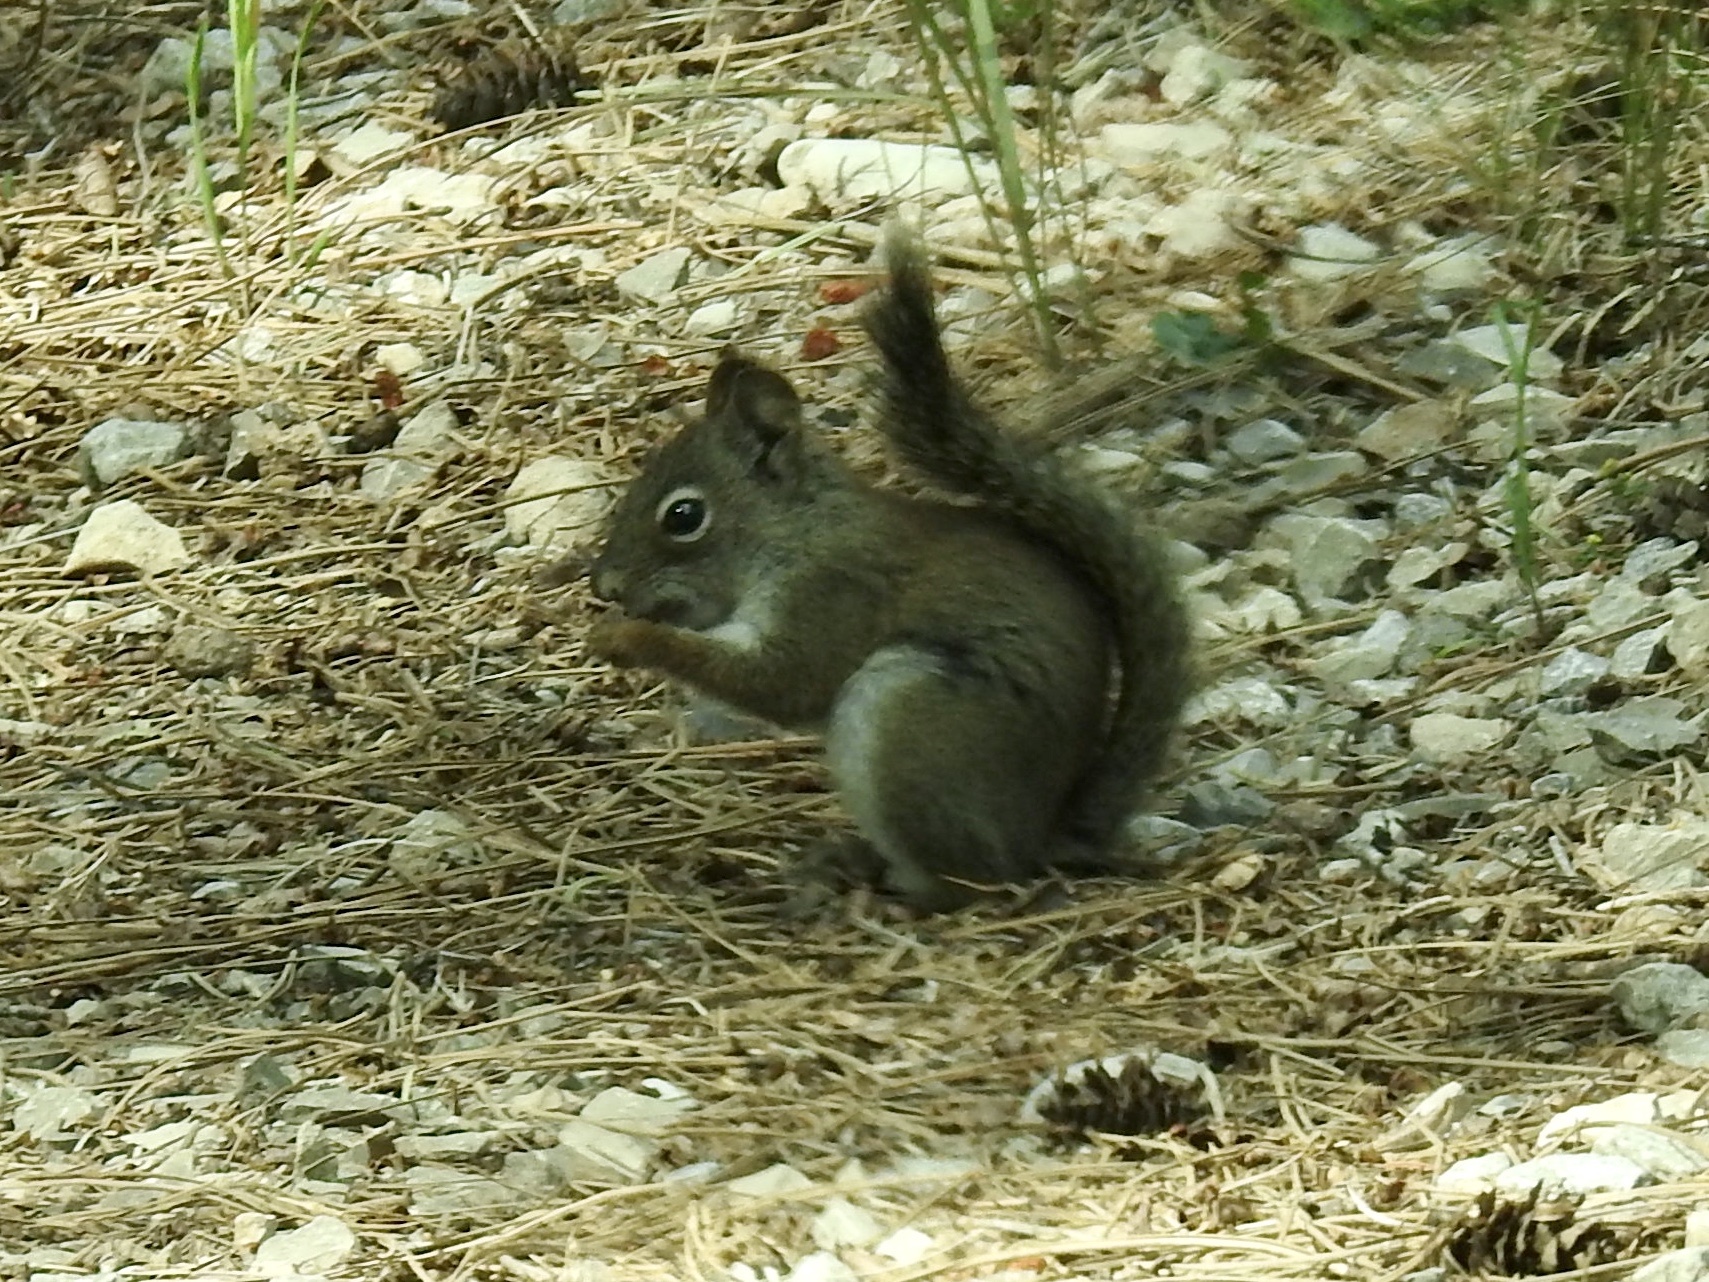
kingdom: Animalia
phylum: Chordata
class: Mammalia
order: Rodentia
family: Sciuridae
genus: Tamiasciurus
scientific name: Tamiasciurus hudsonicus
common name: Red squirrel
